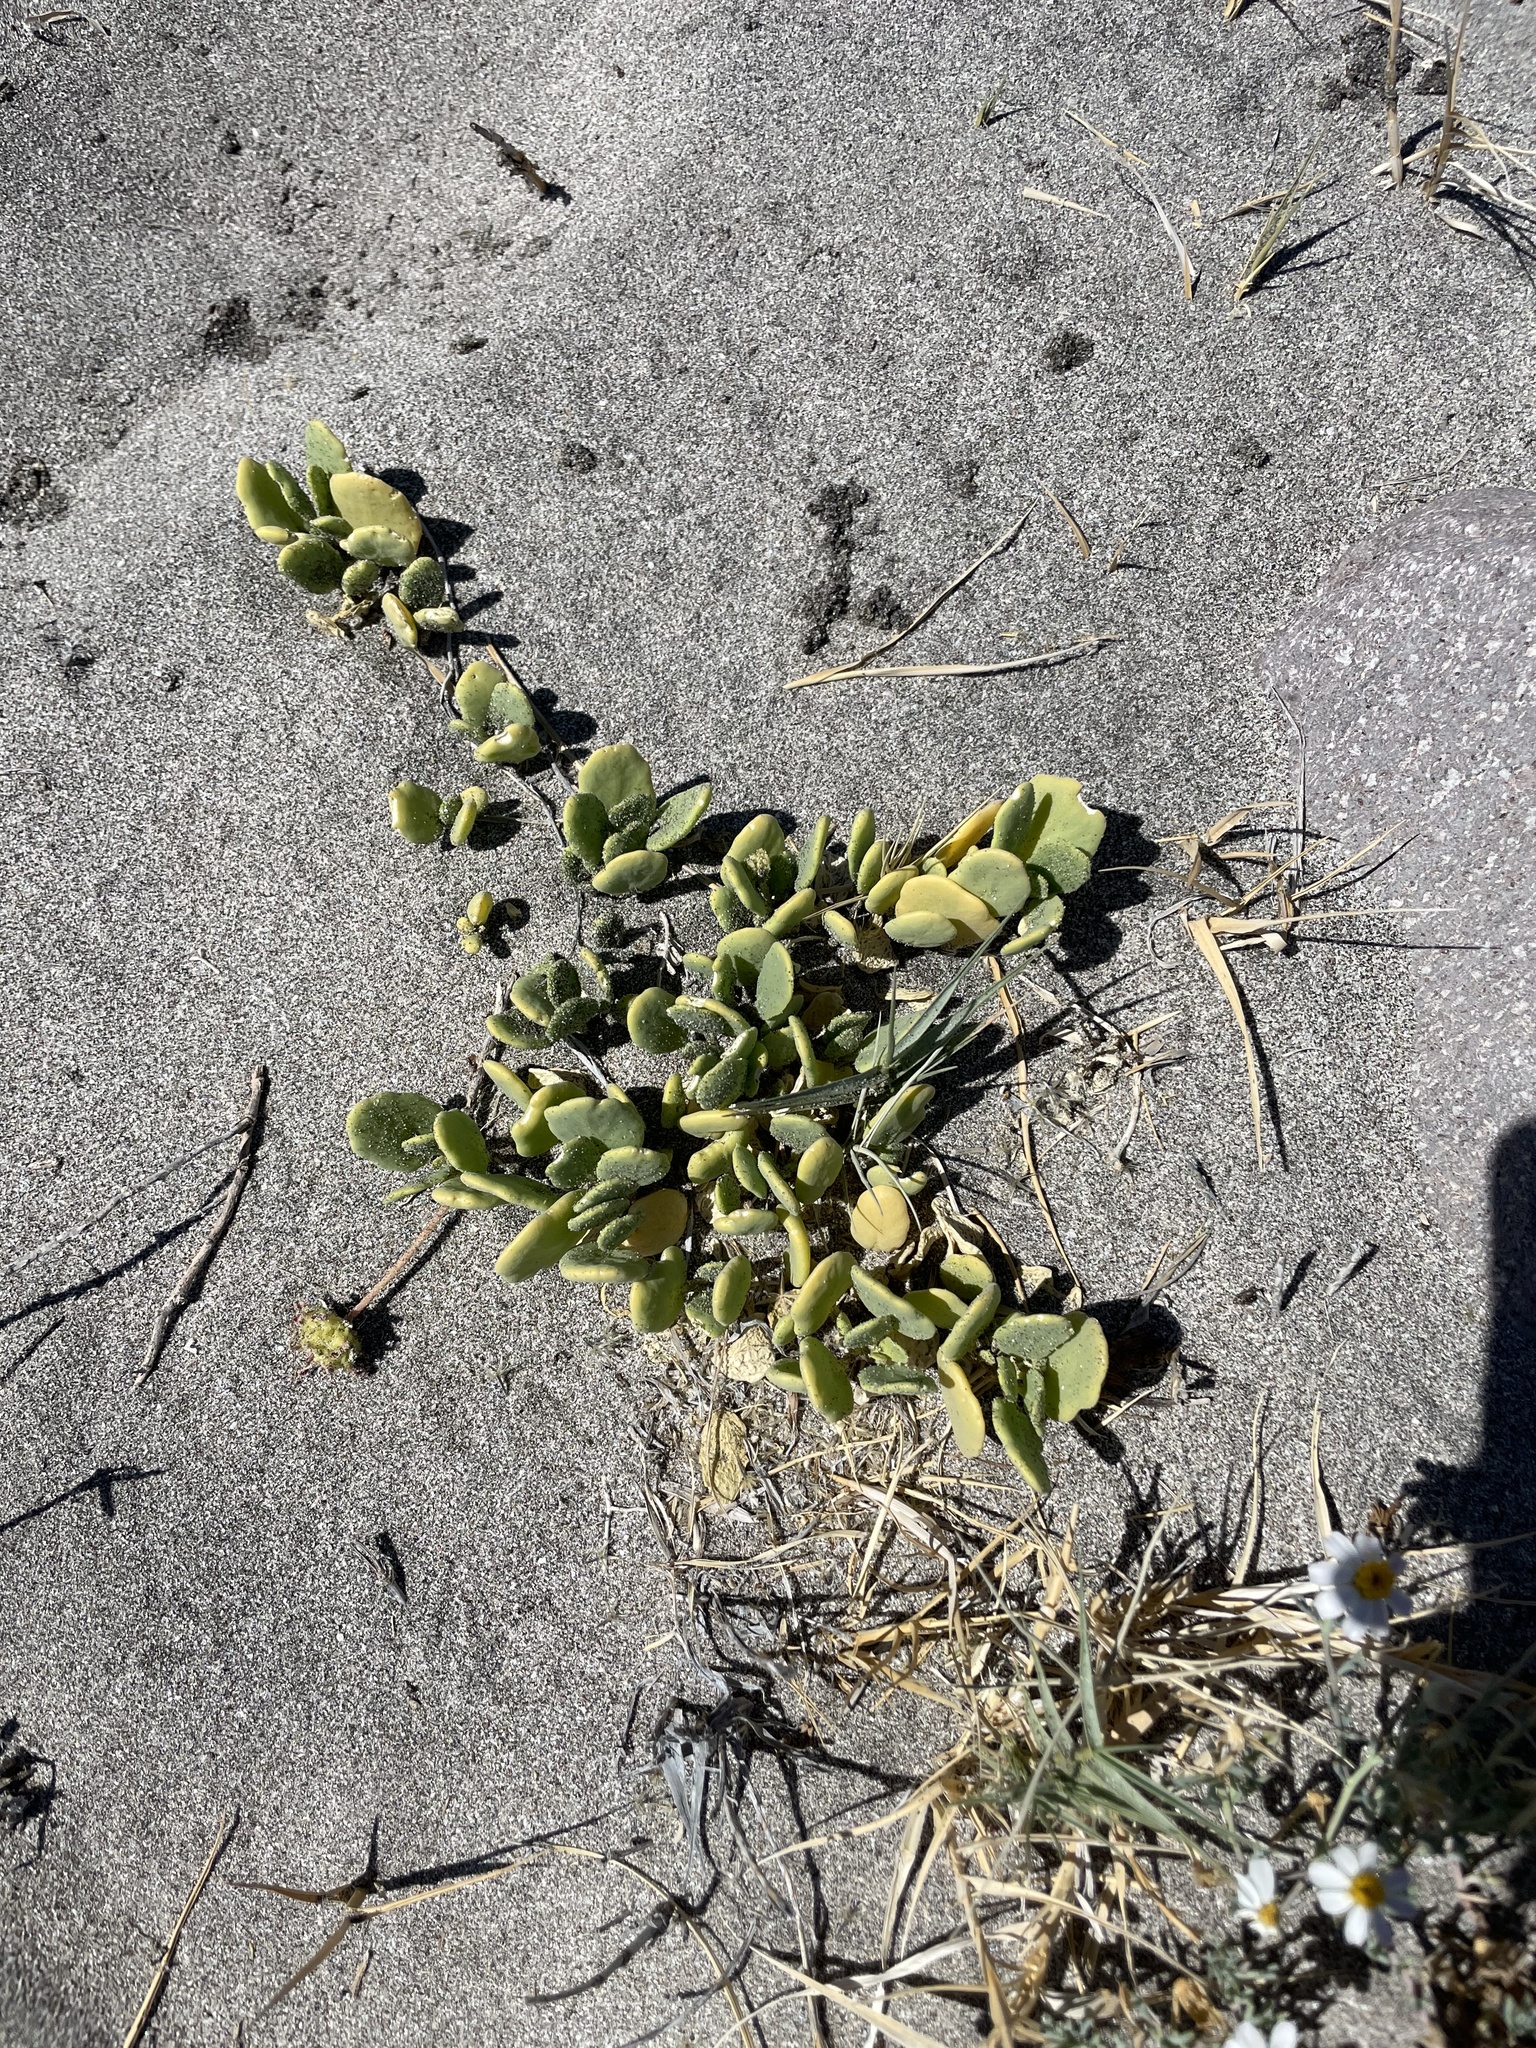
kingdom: Plantae
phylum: Tracheophyta
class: Magnoliopsida
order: Caryophyllales
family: Nyctaginaceae
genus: Abronia
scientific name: Abronia maritima
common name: Red sand-verbena
